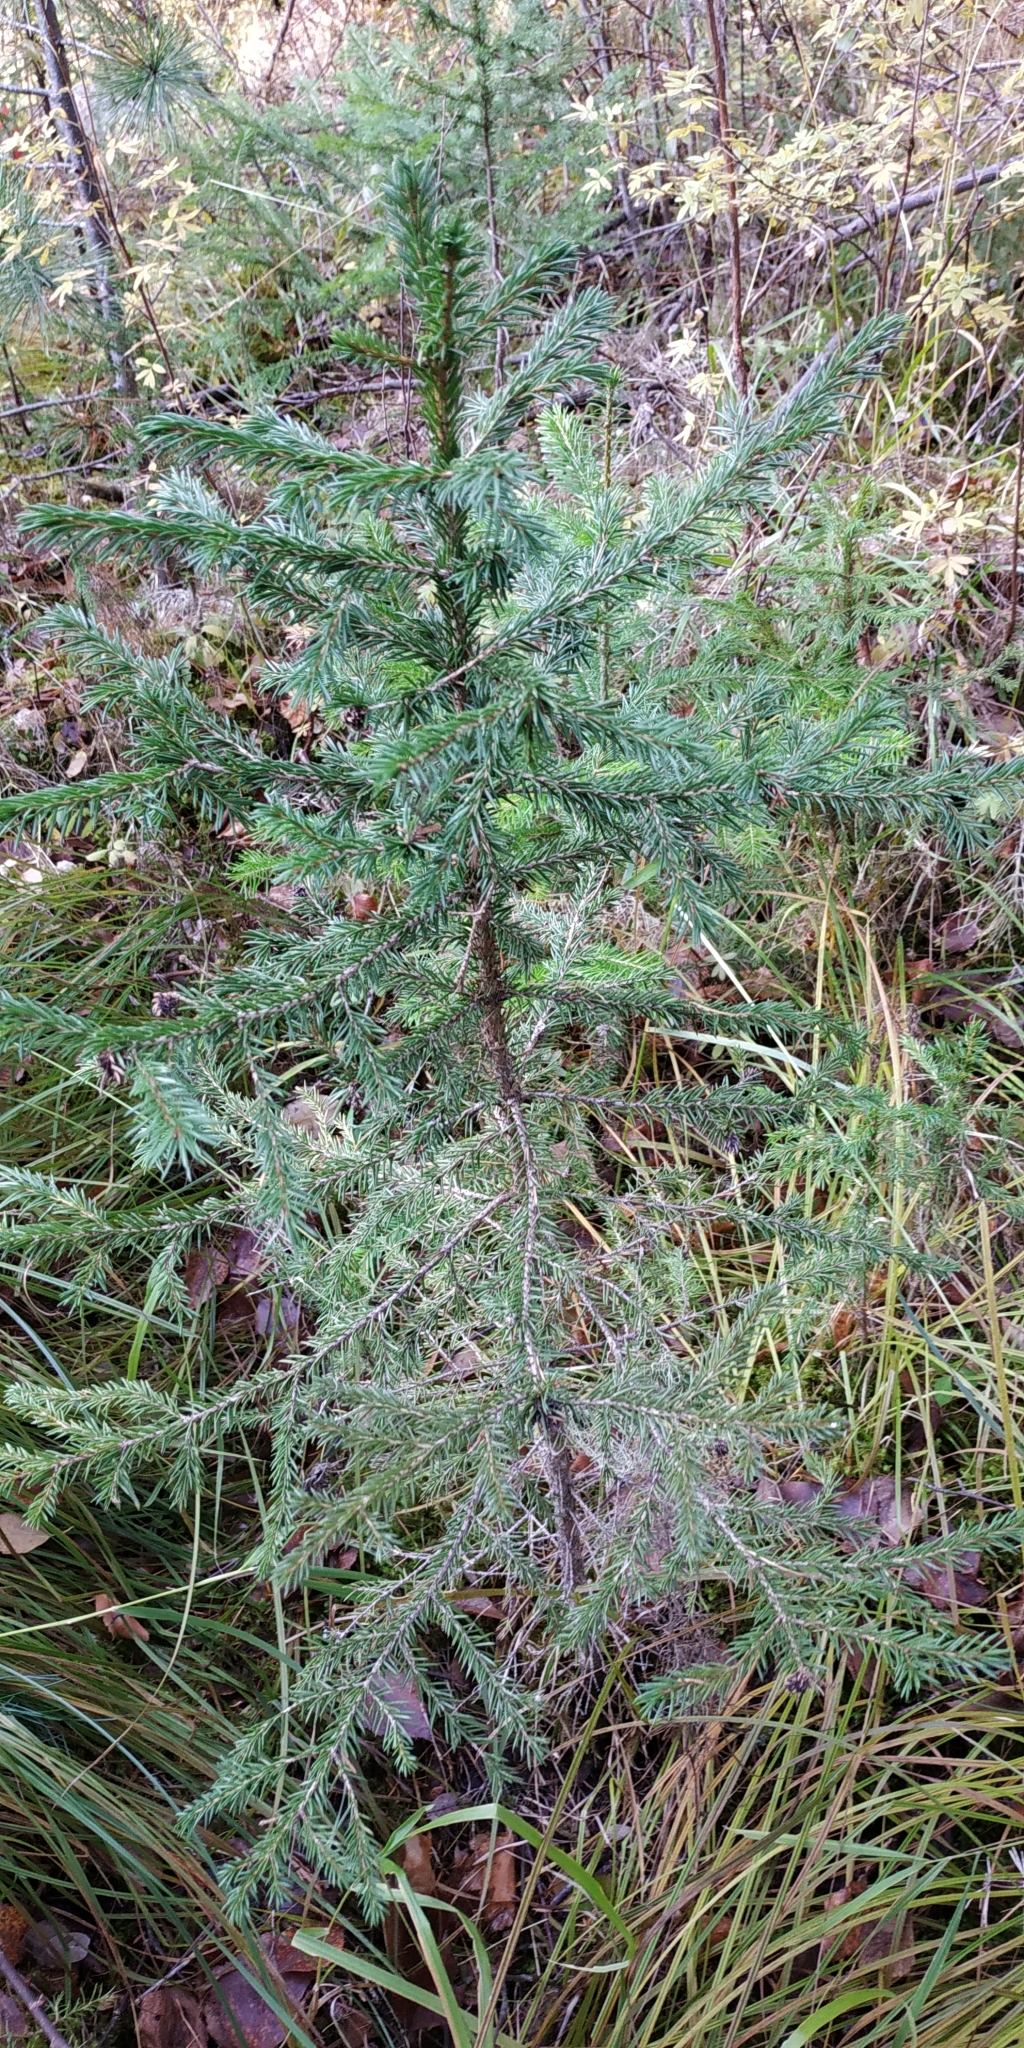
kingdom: Plantae
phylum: Tracheophyta
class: Pinopsida
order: Pinales
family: Pinaceae
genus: Picea
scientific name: Picea obovata
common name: Siberian spruce
